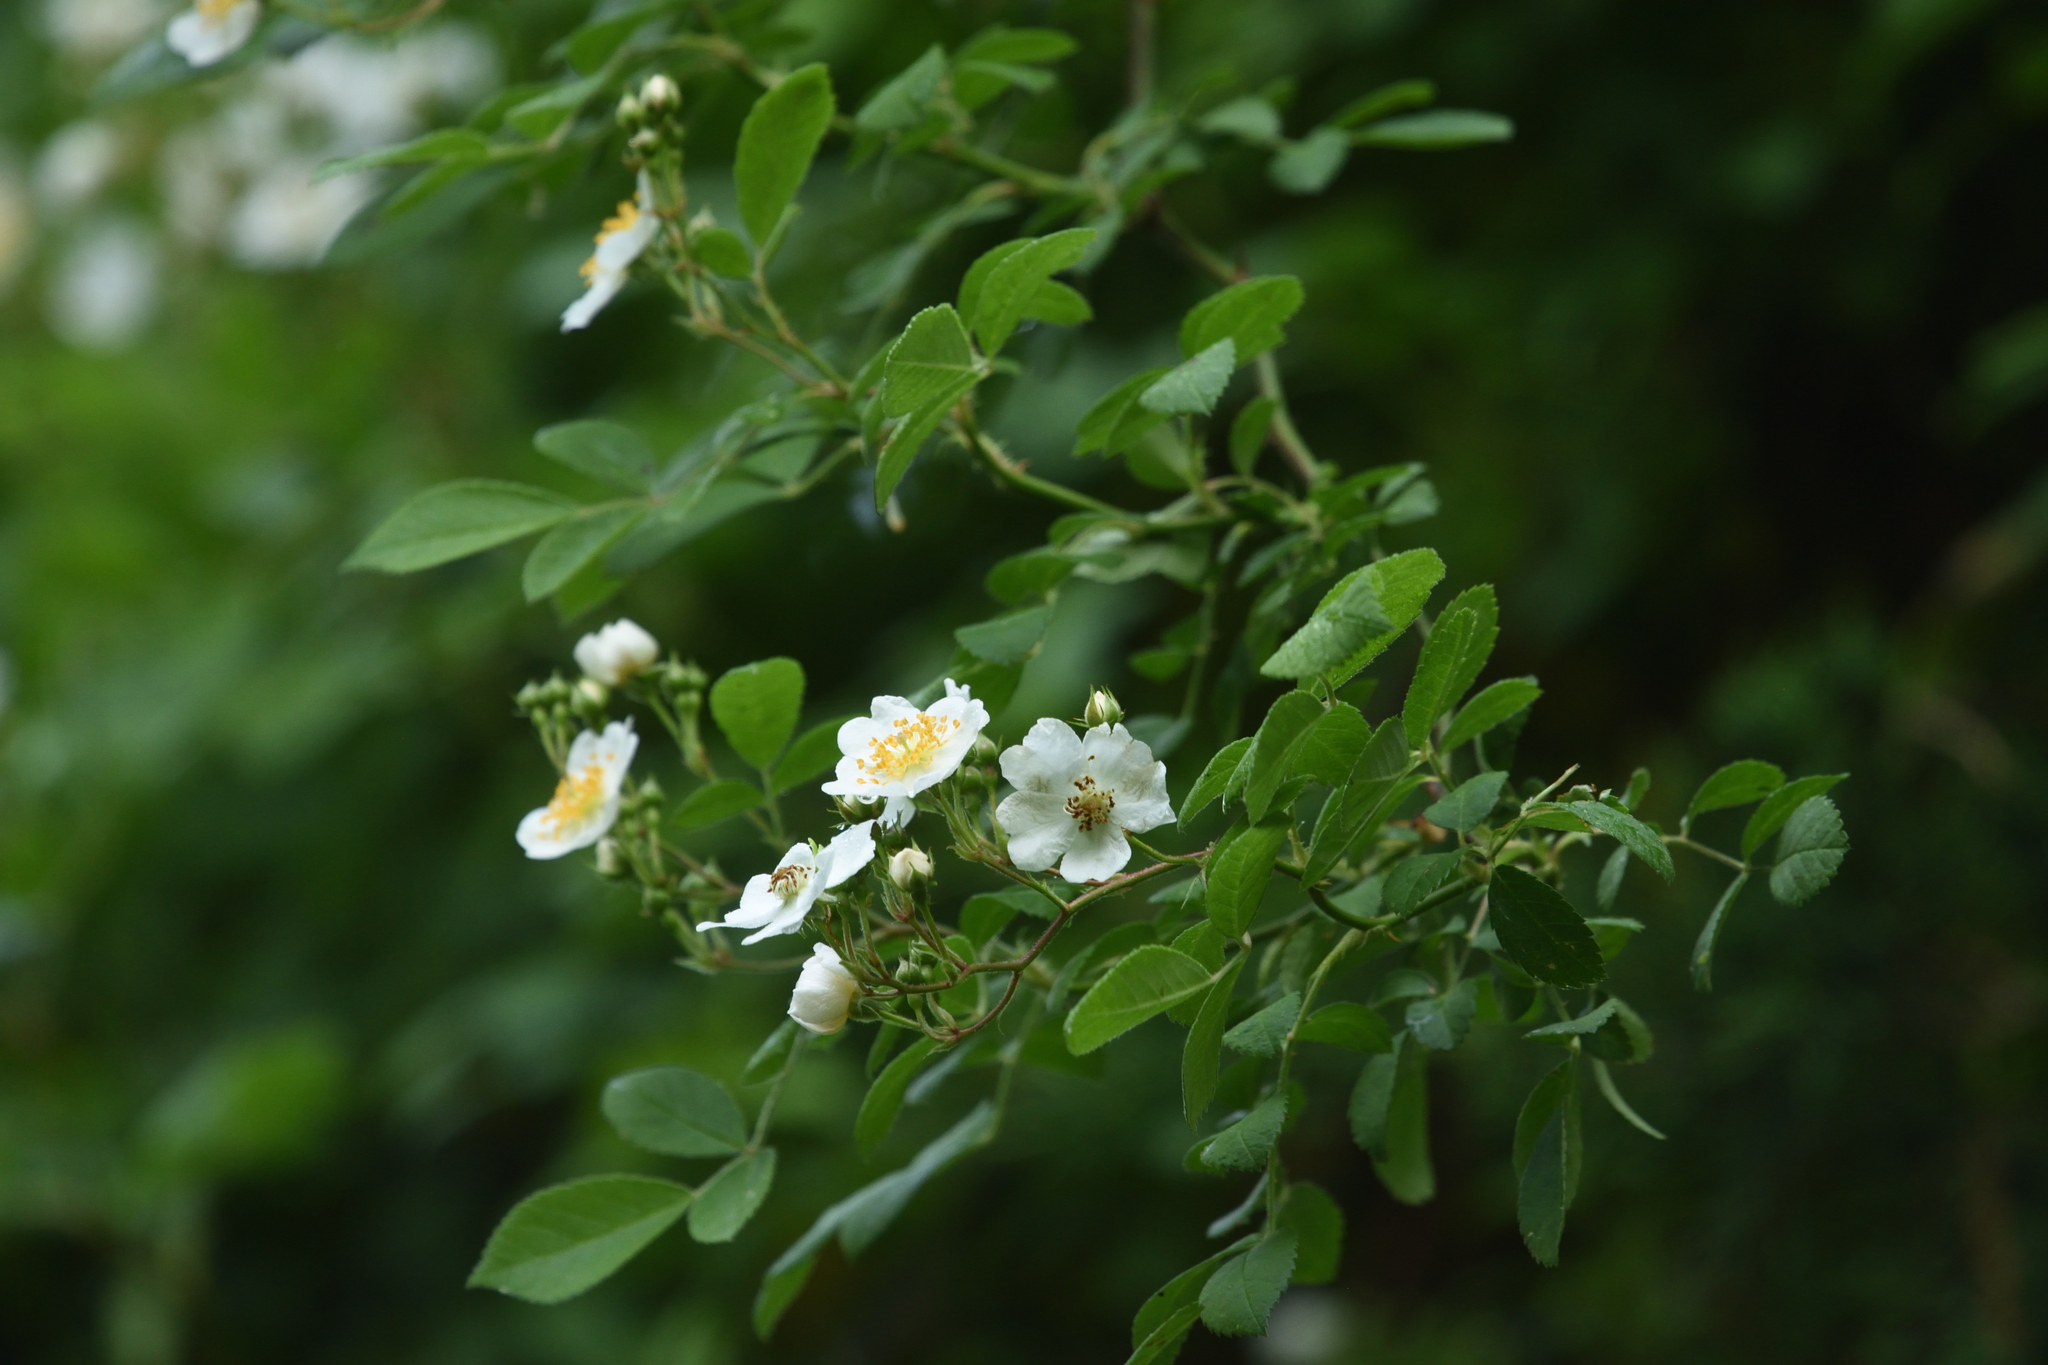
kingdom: Plantae
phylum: Tracheophyta
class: Magnoliopsida
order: Rosales
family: Rosaceae
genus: Rosa
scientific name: Rosa multiflora
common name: Multiflora rose
